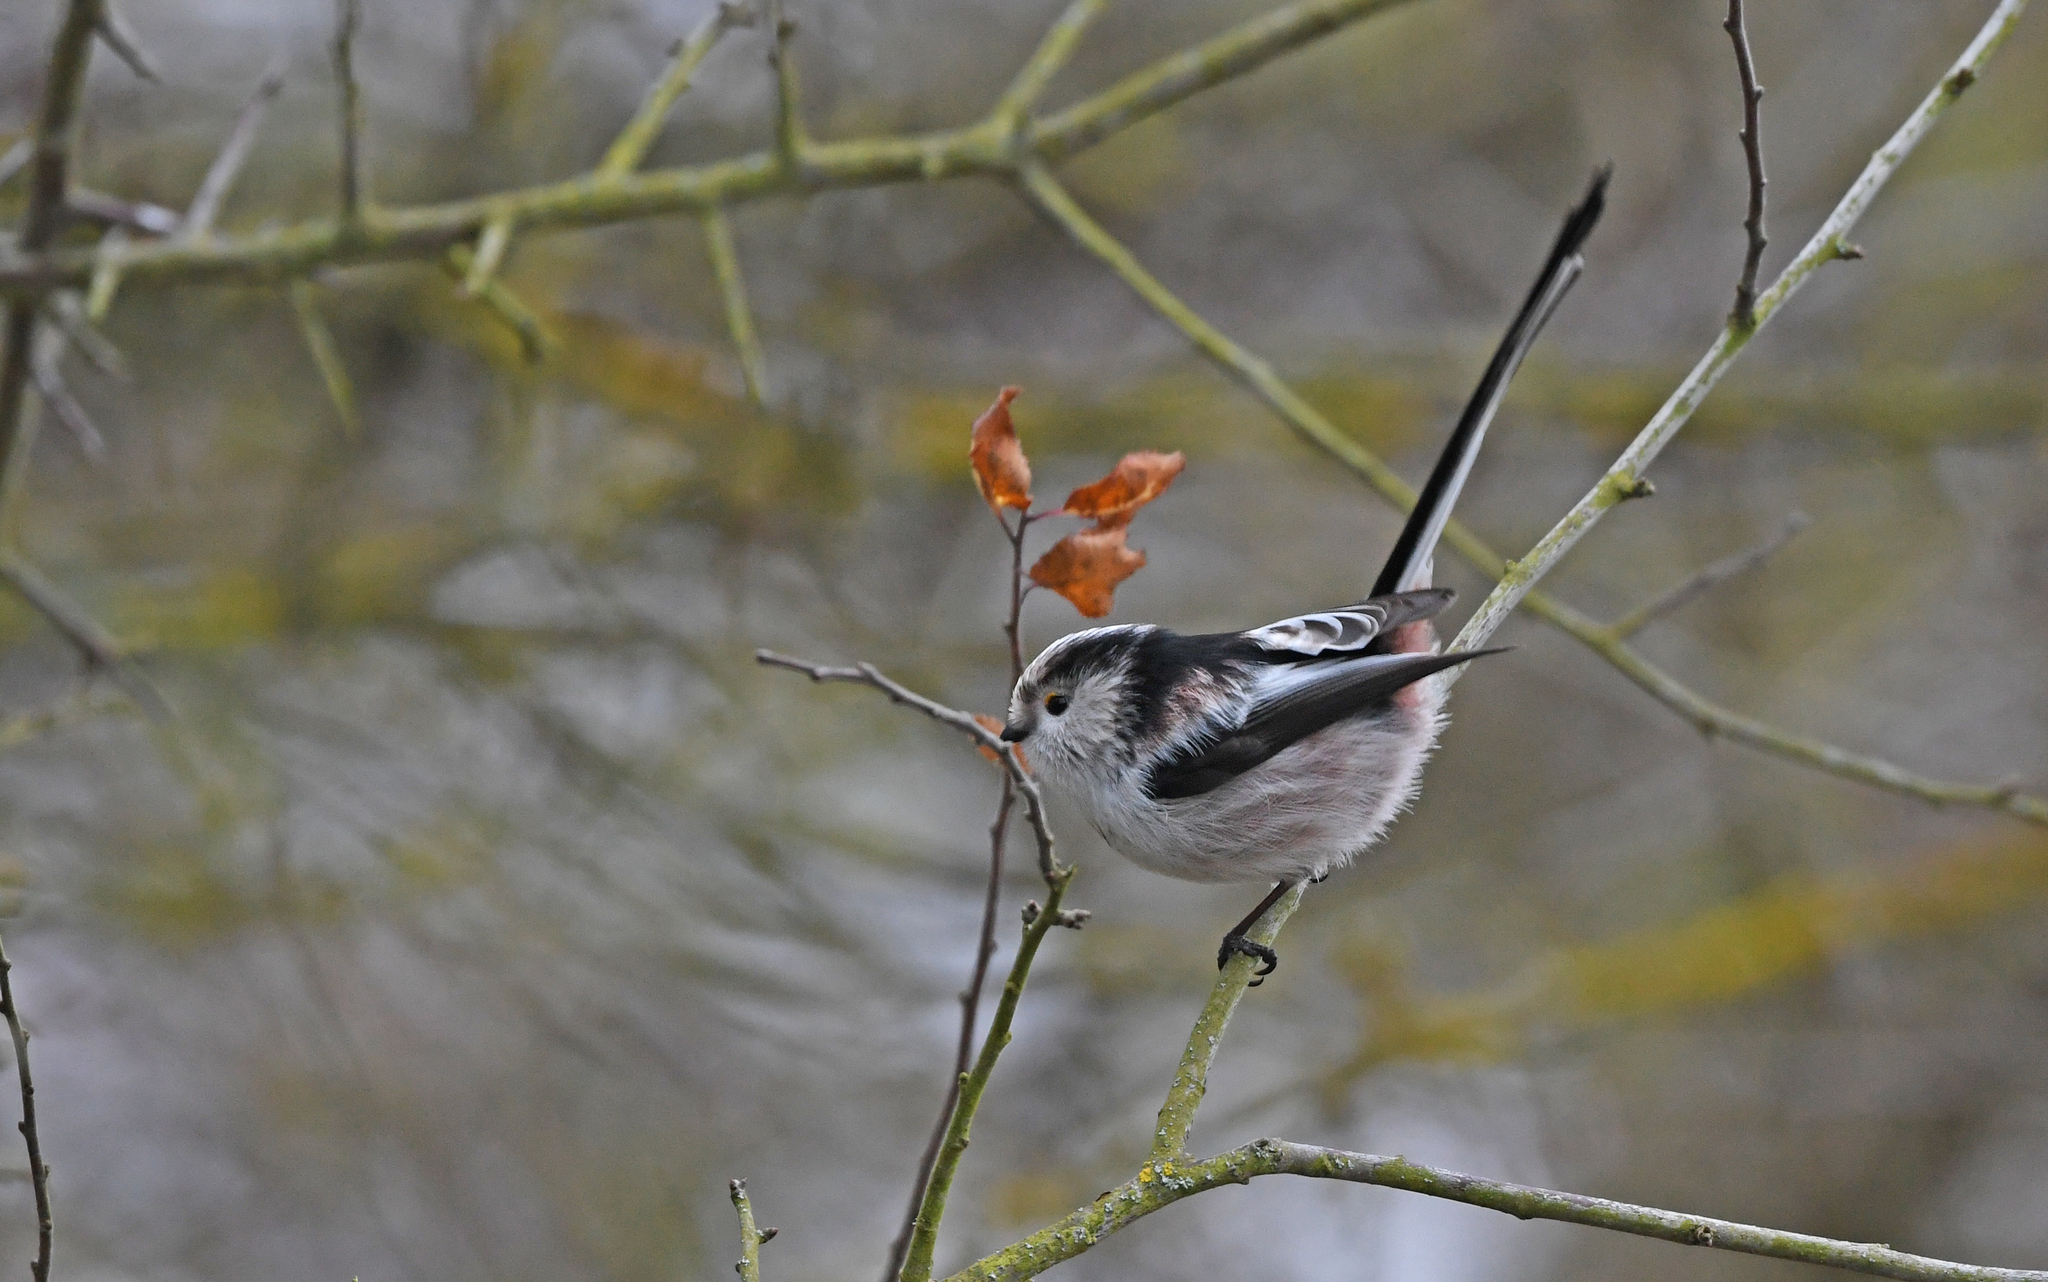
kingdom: Animalia
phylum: Chordata
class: Aves
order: Passeriformes
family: Aegithalidae
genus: Aegithalos
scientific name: Aegithalos caudatus
